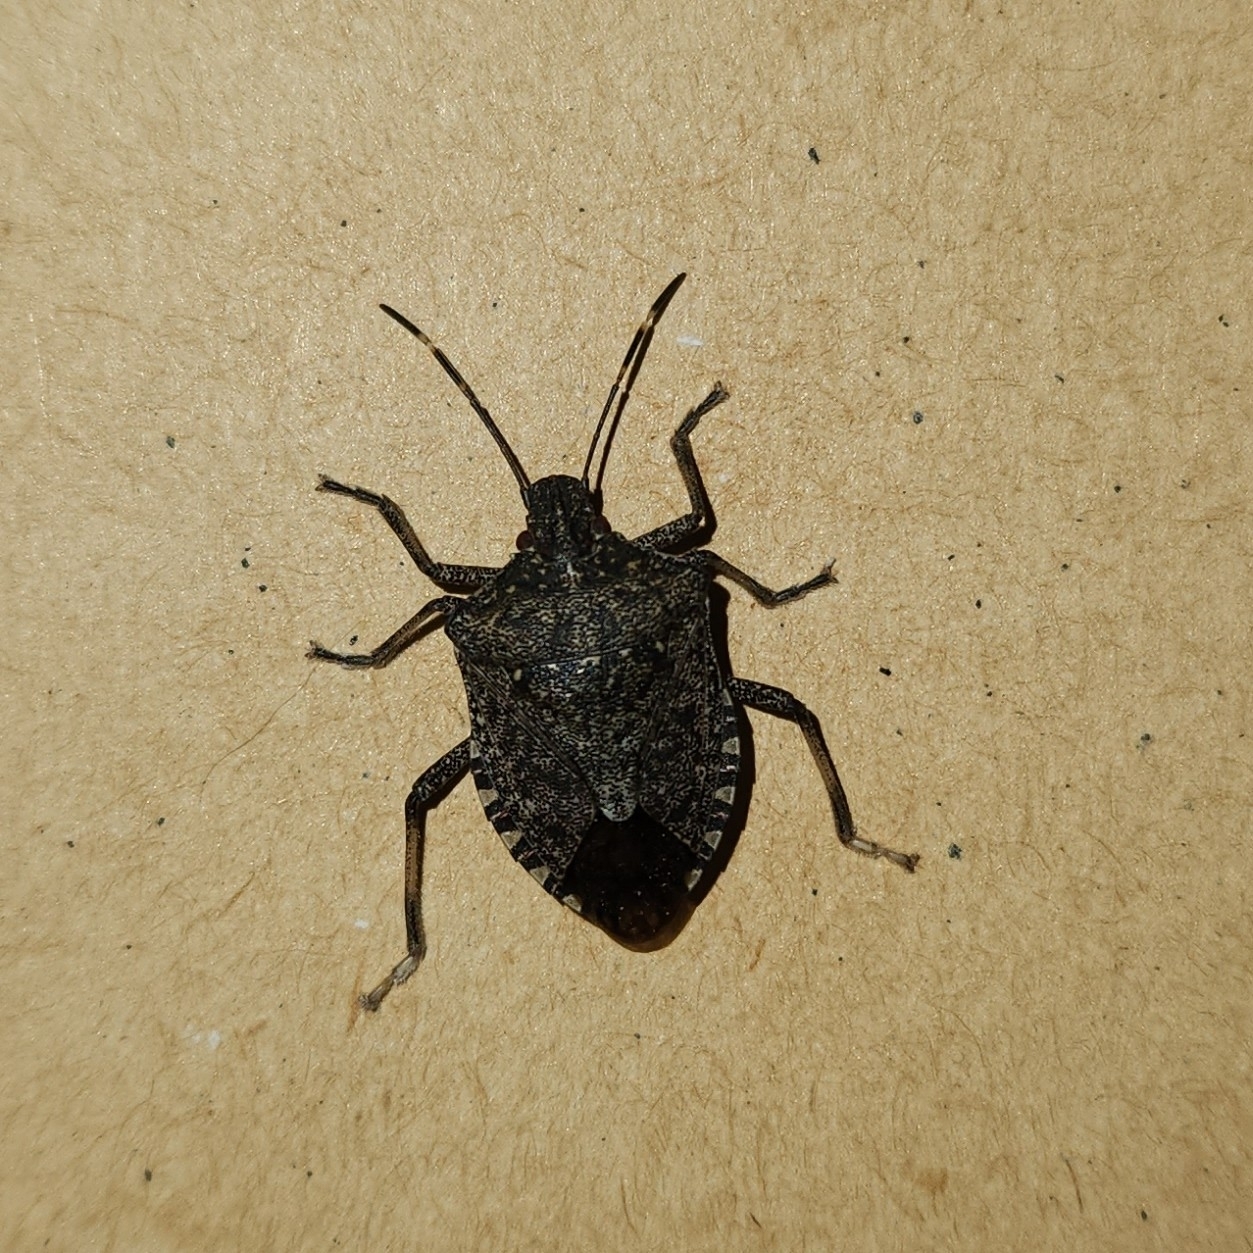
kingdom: Animalia
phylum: Arthropoda
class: Insecta
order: Hemiptera
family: Pentatomidae
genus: Halyomorpha
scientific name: Halyomorpha halys
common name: Brown marmorated stink bug
